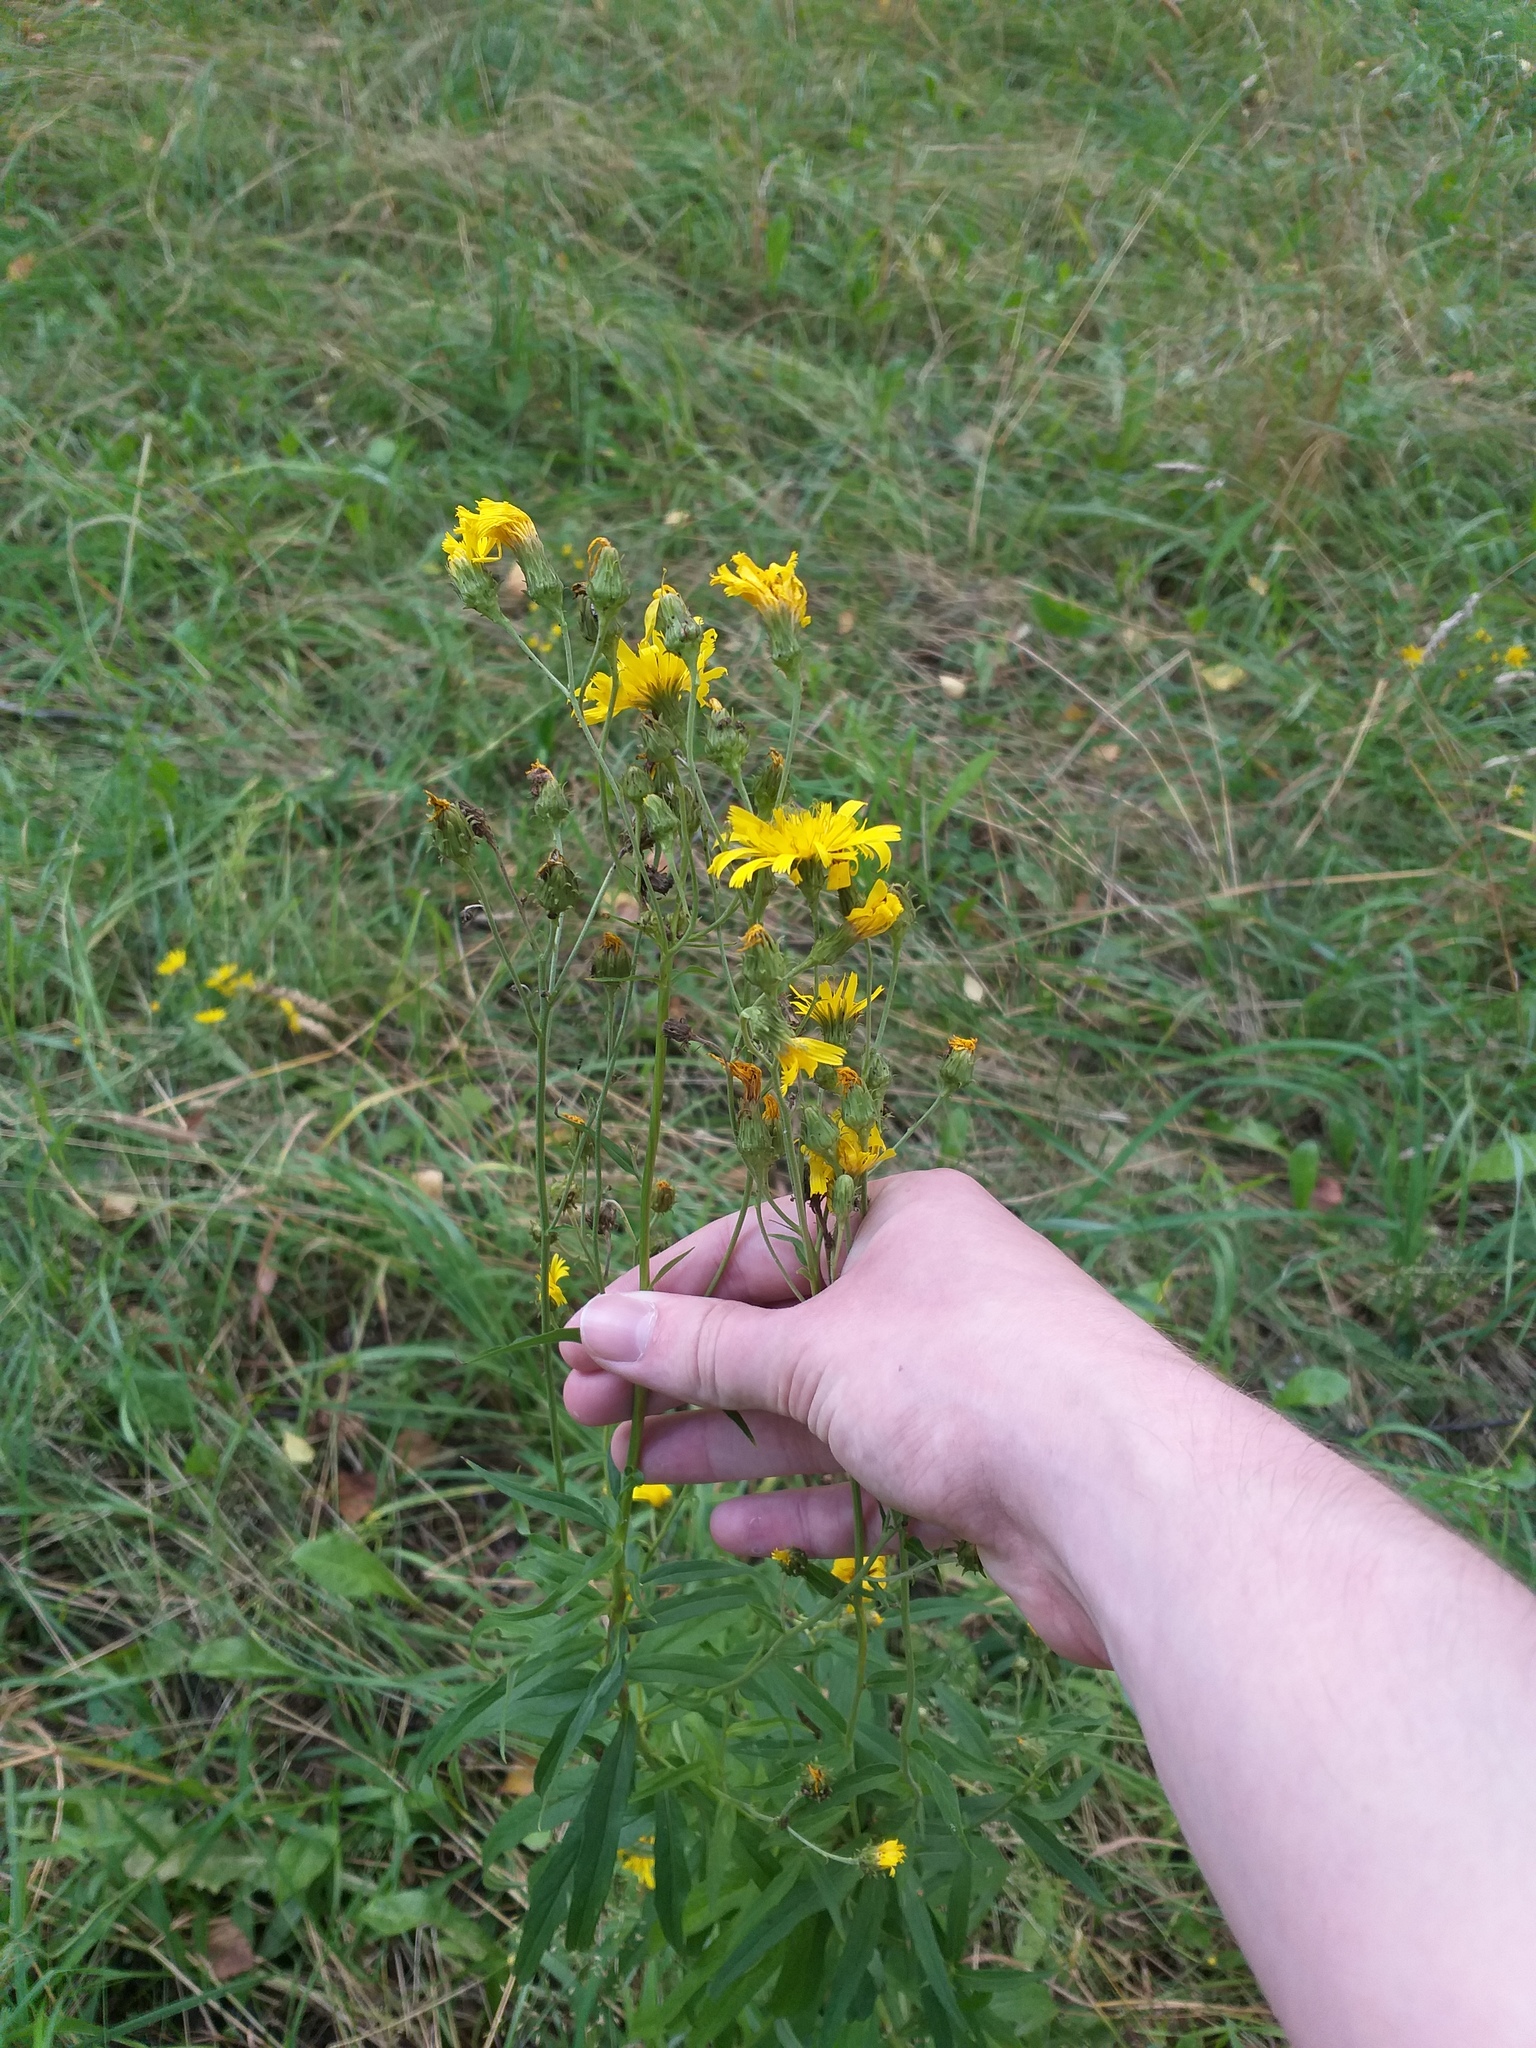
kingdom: Plantae
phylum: Tracheophyta
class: Magnoliopsida
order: Asterales
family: Asteraceae
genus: Hieracium
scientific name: Hieracium umbellatum
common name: Northern hawkweed
